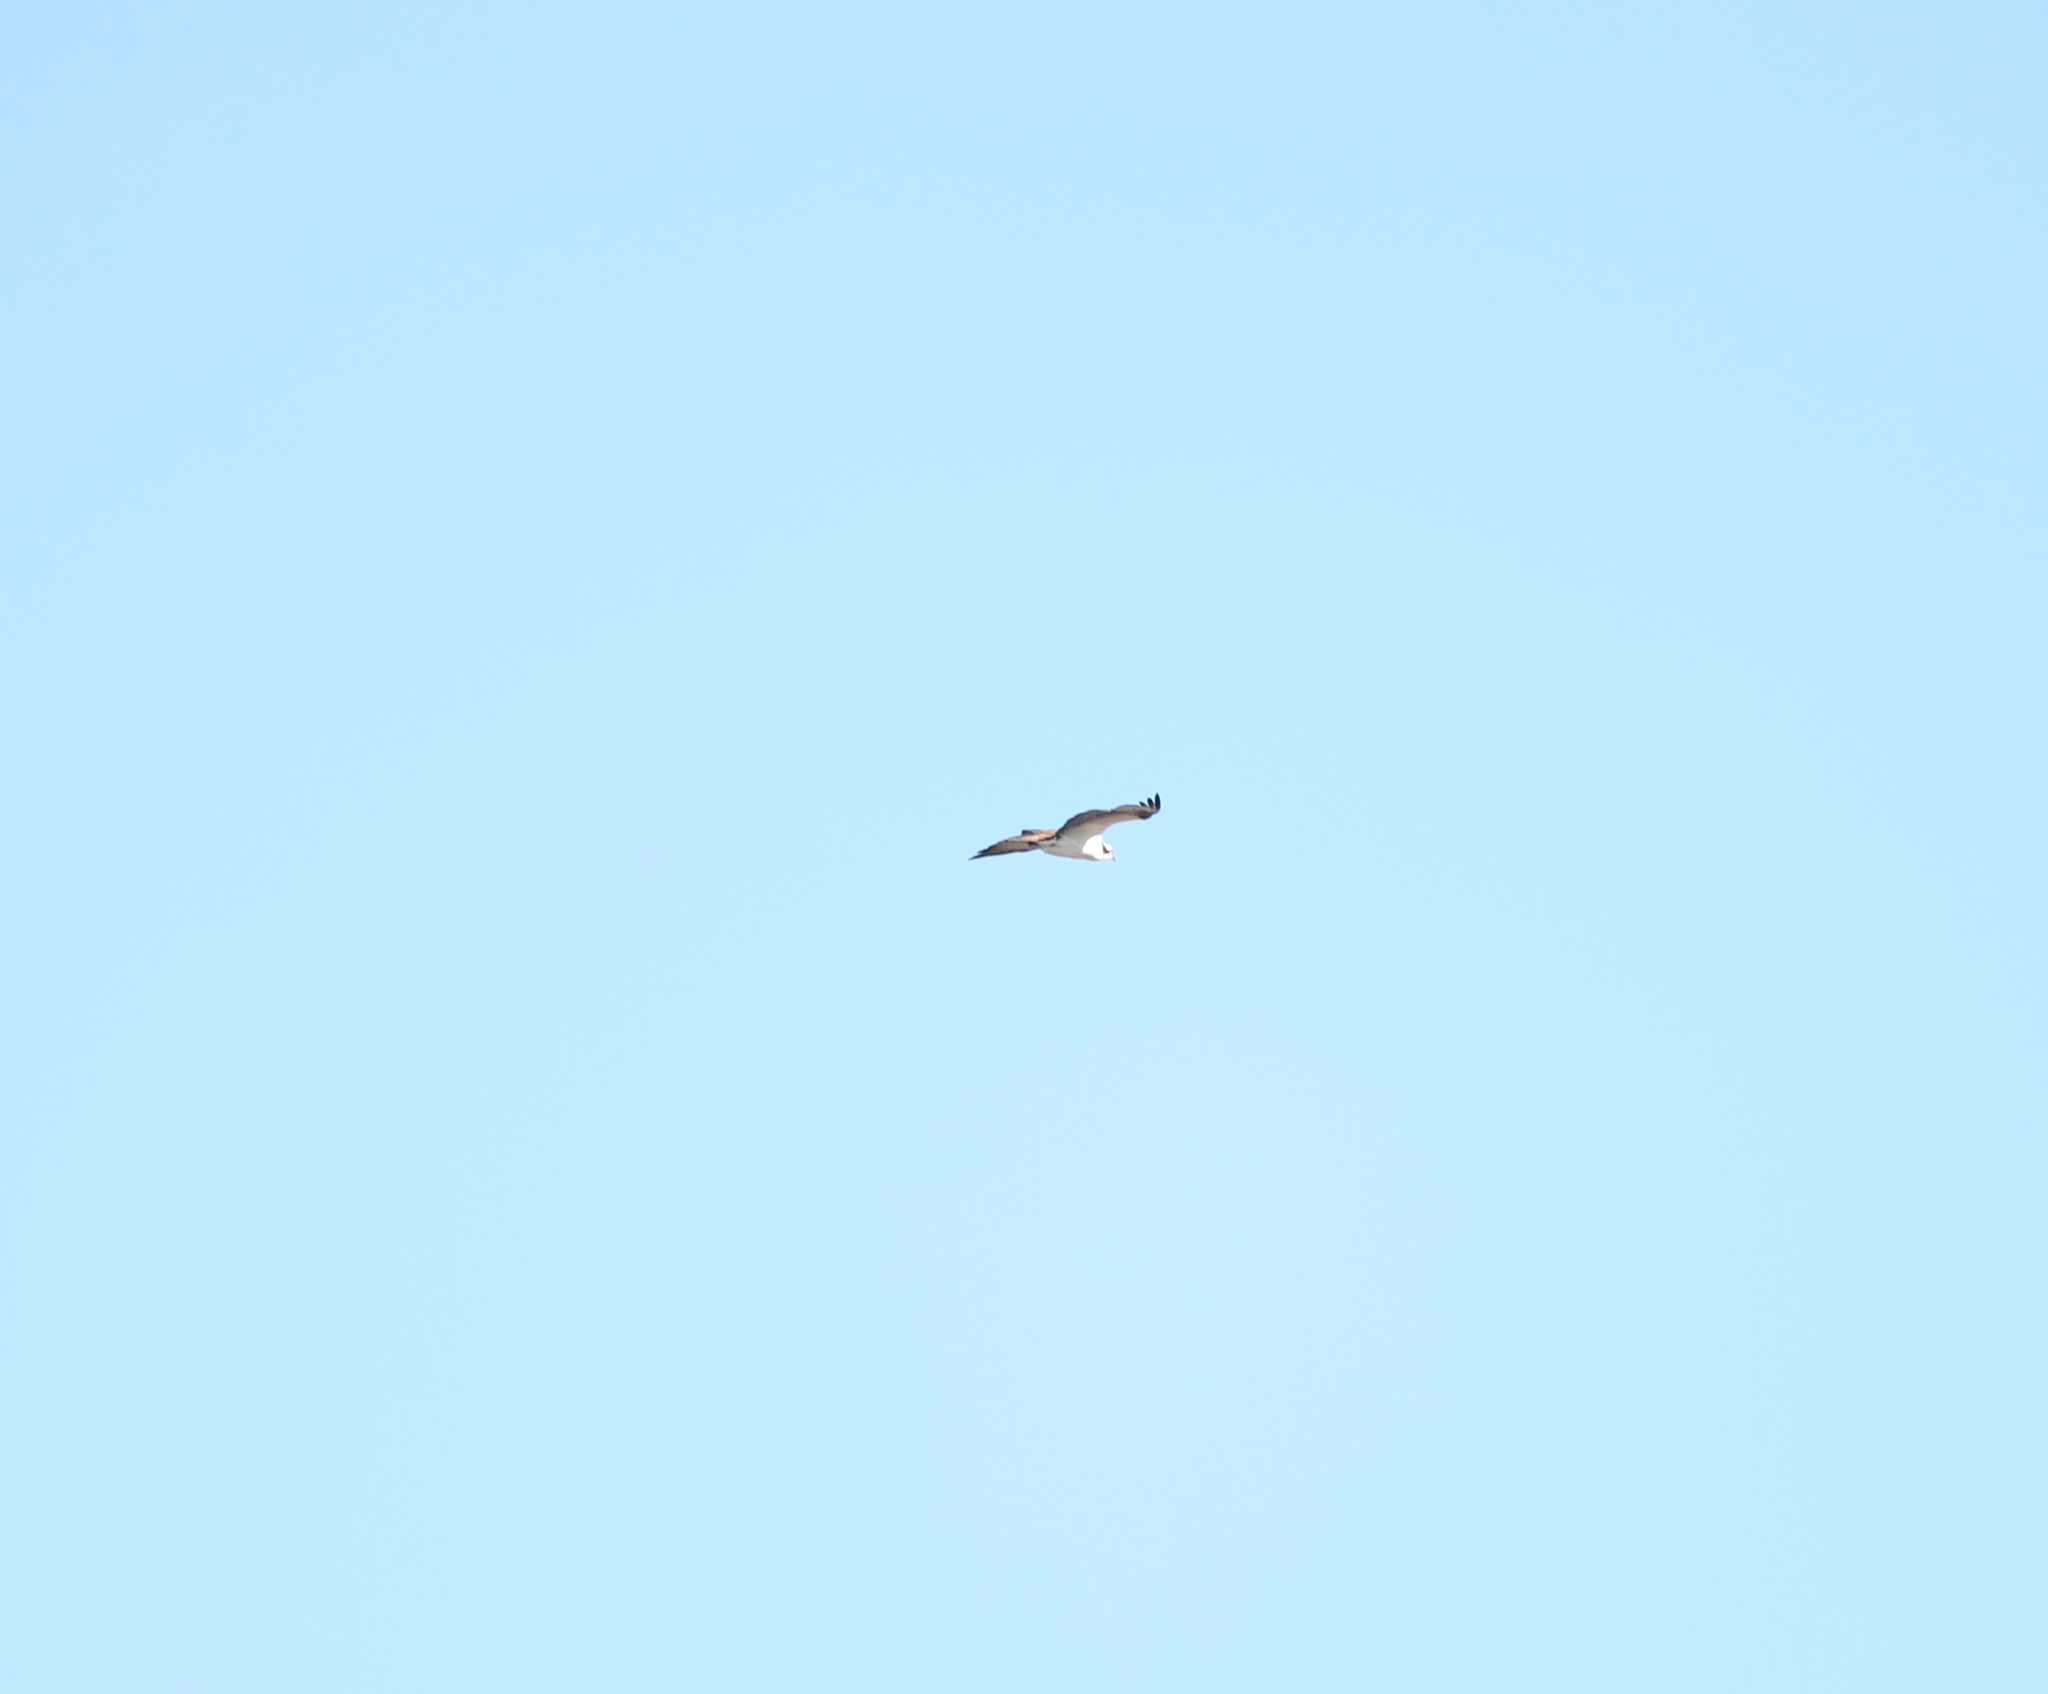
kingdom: Animalia
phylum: Chordata
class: Aves
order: Accipitriformes
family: Pandionidae
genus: Pandion
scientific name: Pandion haliaetus
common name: Osprey
